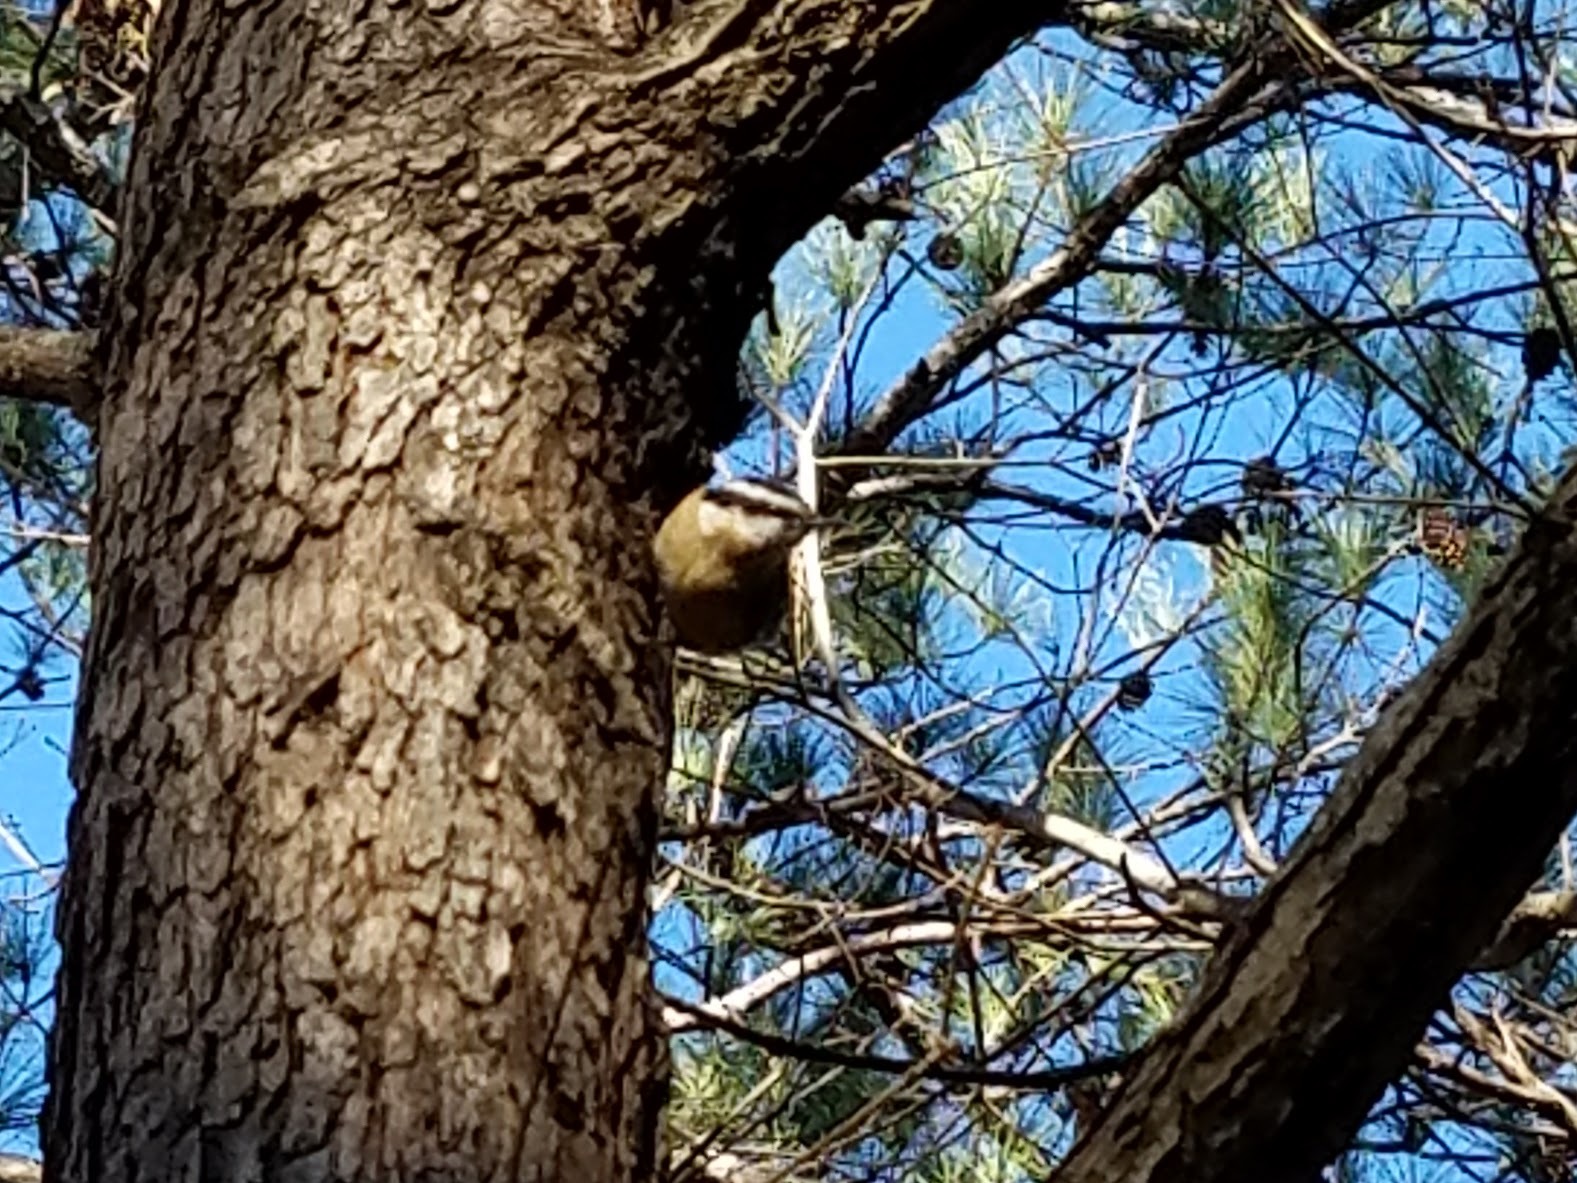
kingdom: Animalia
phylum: Chordata
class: Aves
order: Passeriformes
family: Sittidae
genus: Sitta
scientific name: Sitta canadensis
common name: Red-breasted nuthatch
